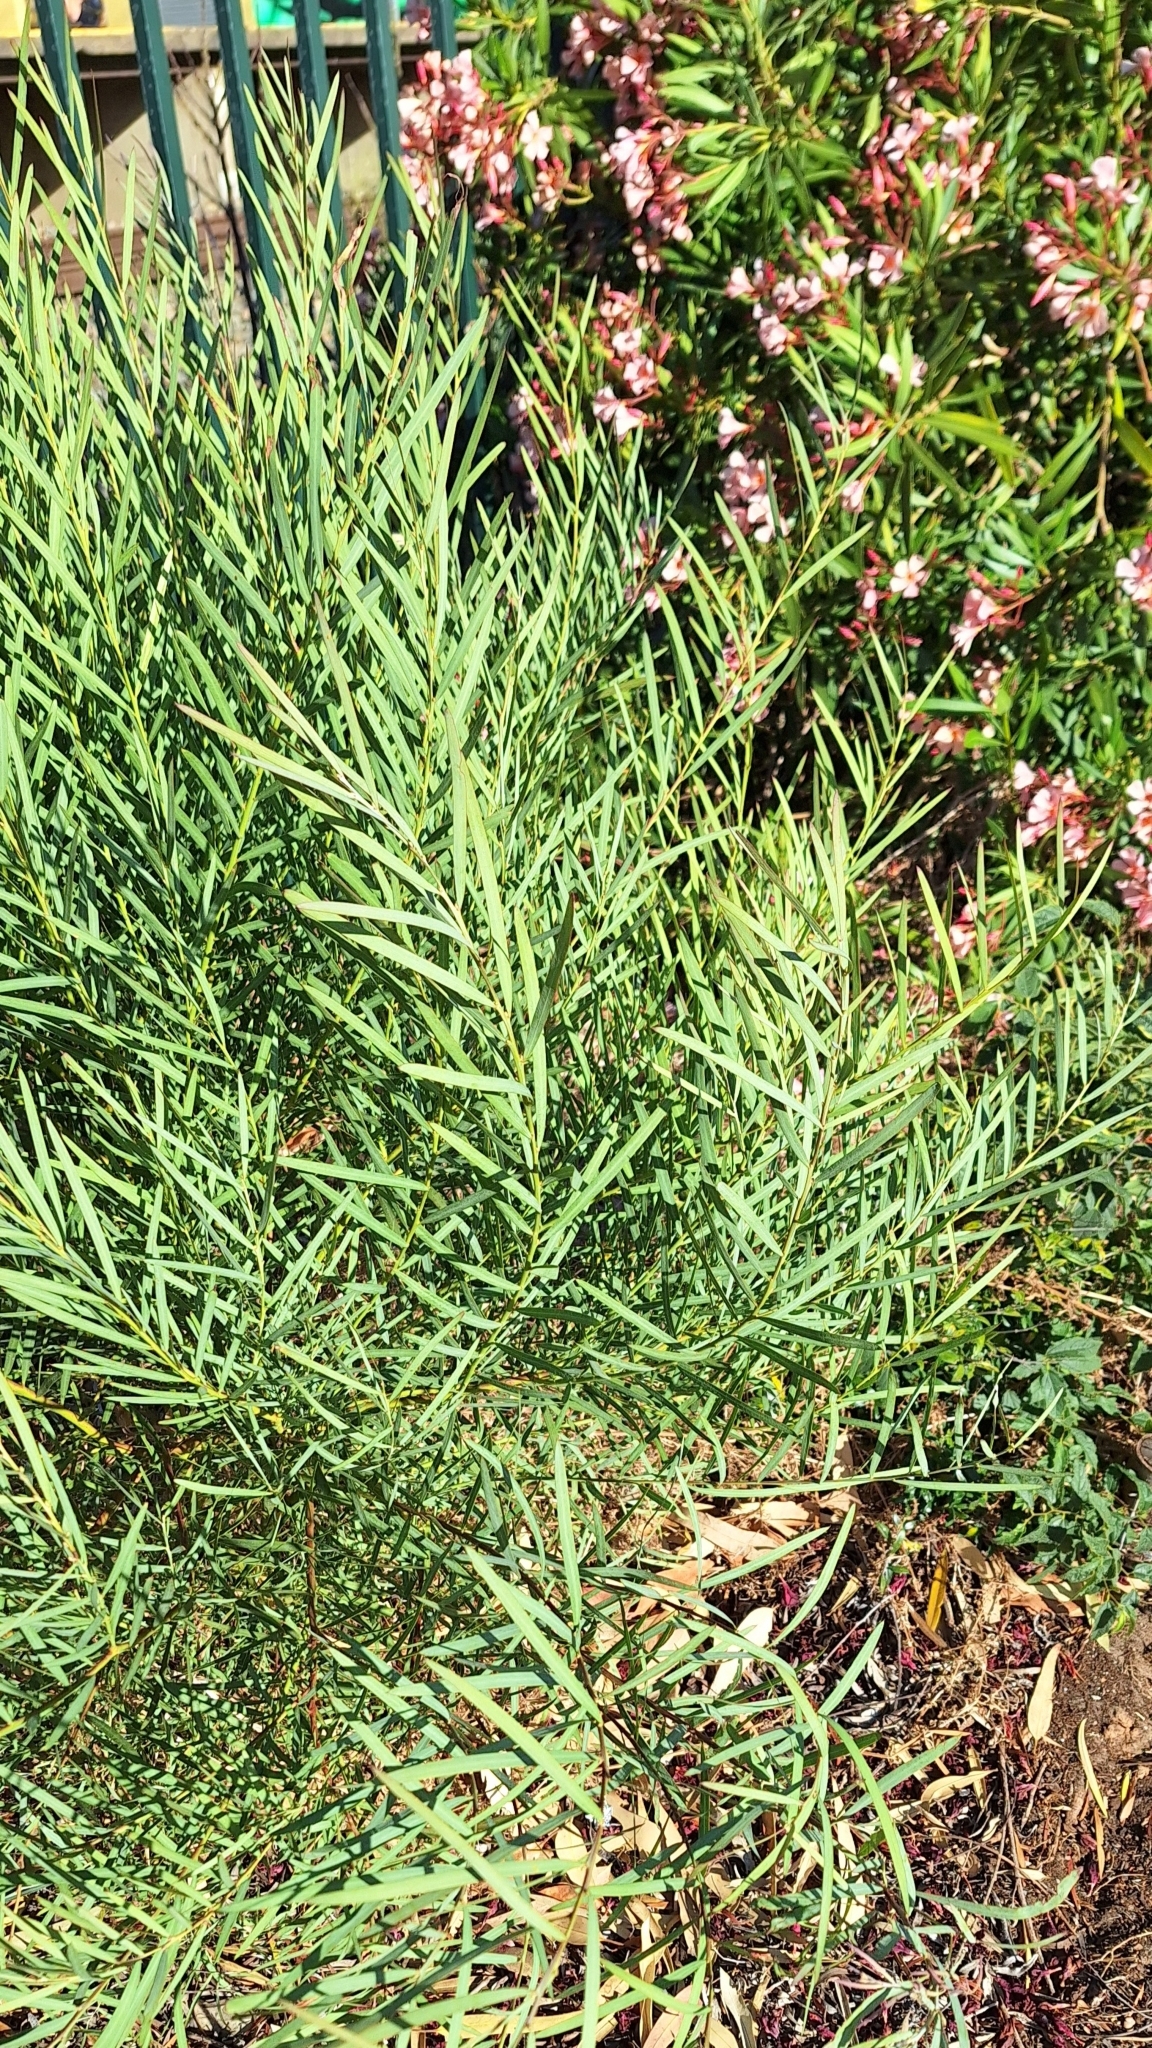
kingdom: Plantae
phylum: Tracheophyta
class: Magnoliopsida
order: Fabales
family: Fabaceae
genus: Acacia
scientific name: Acacia iteaphylla
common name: Flinders ranges wattle
